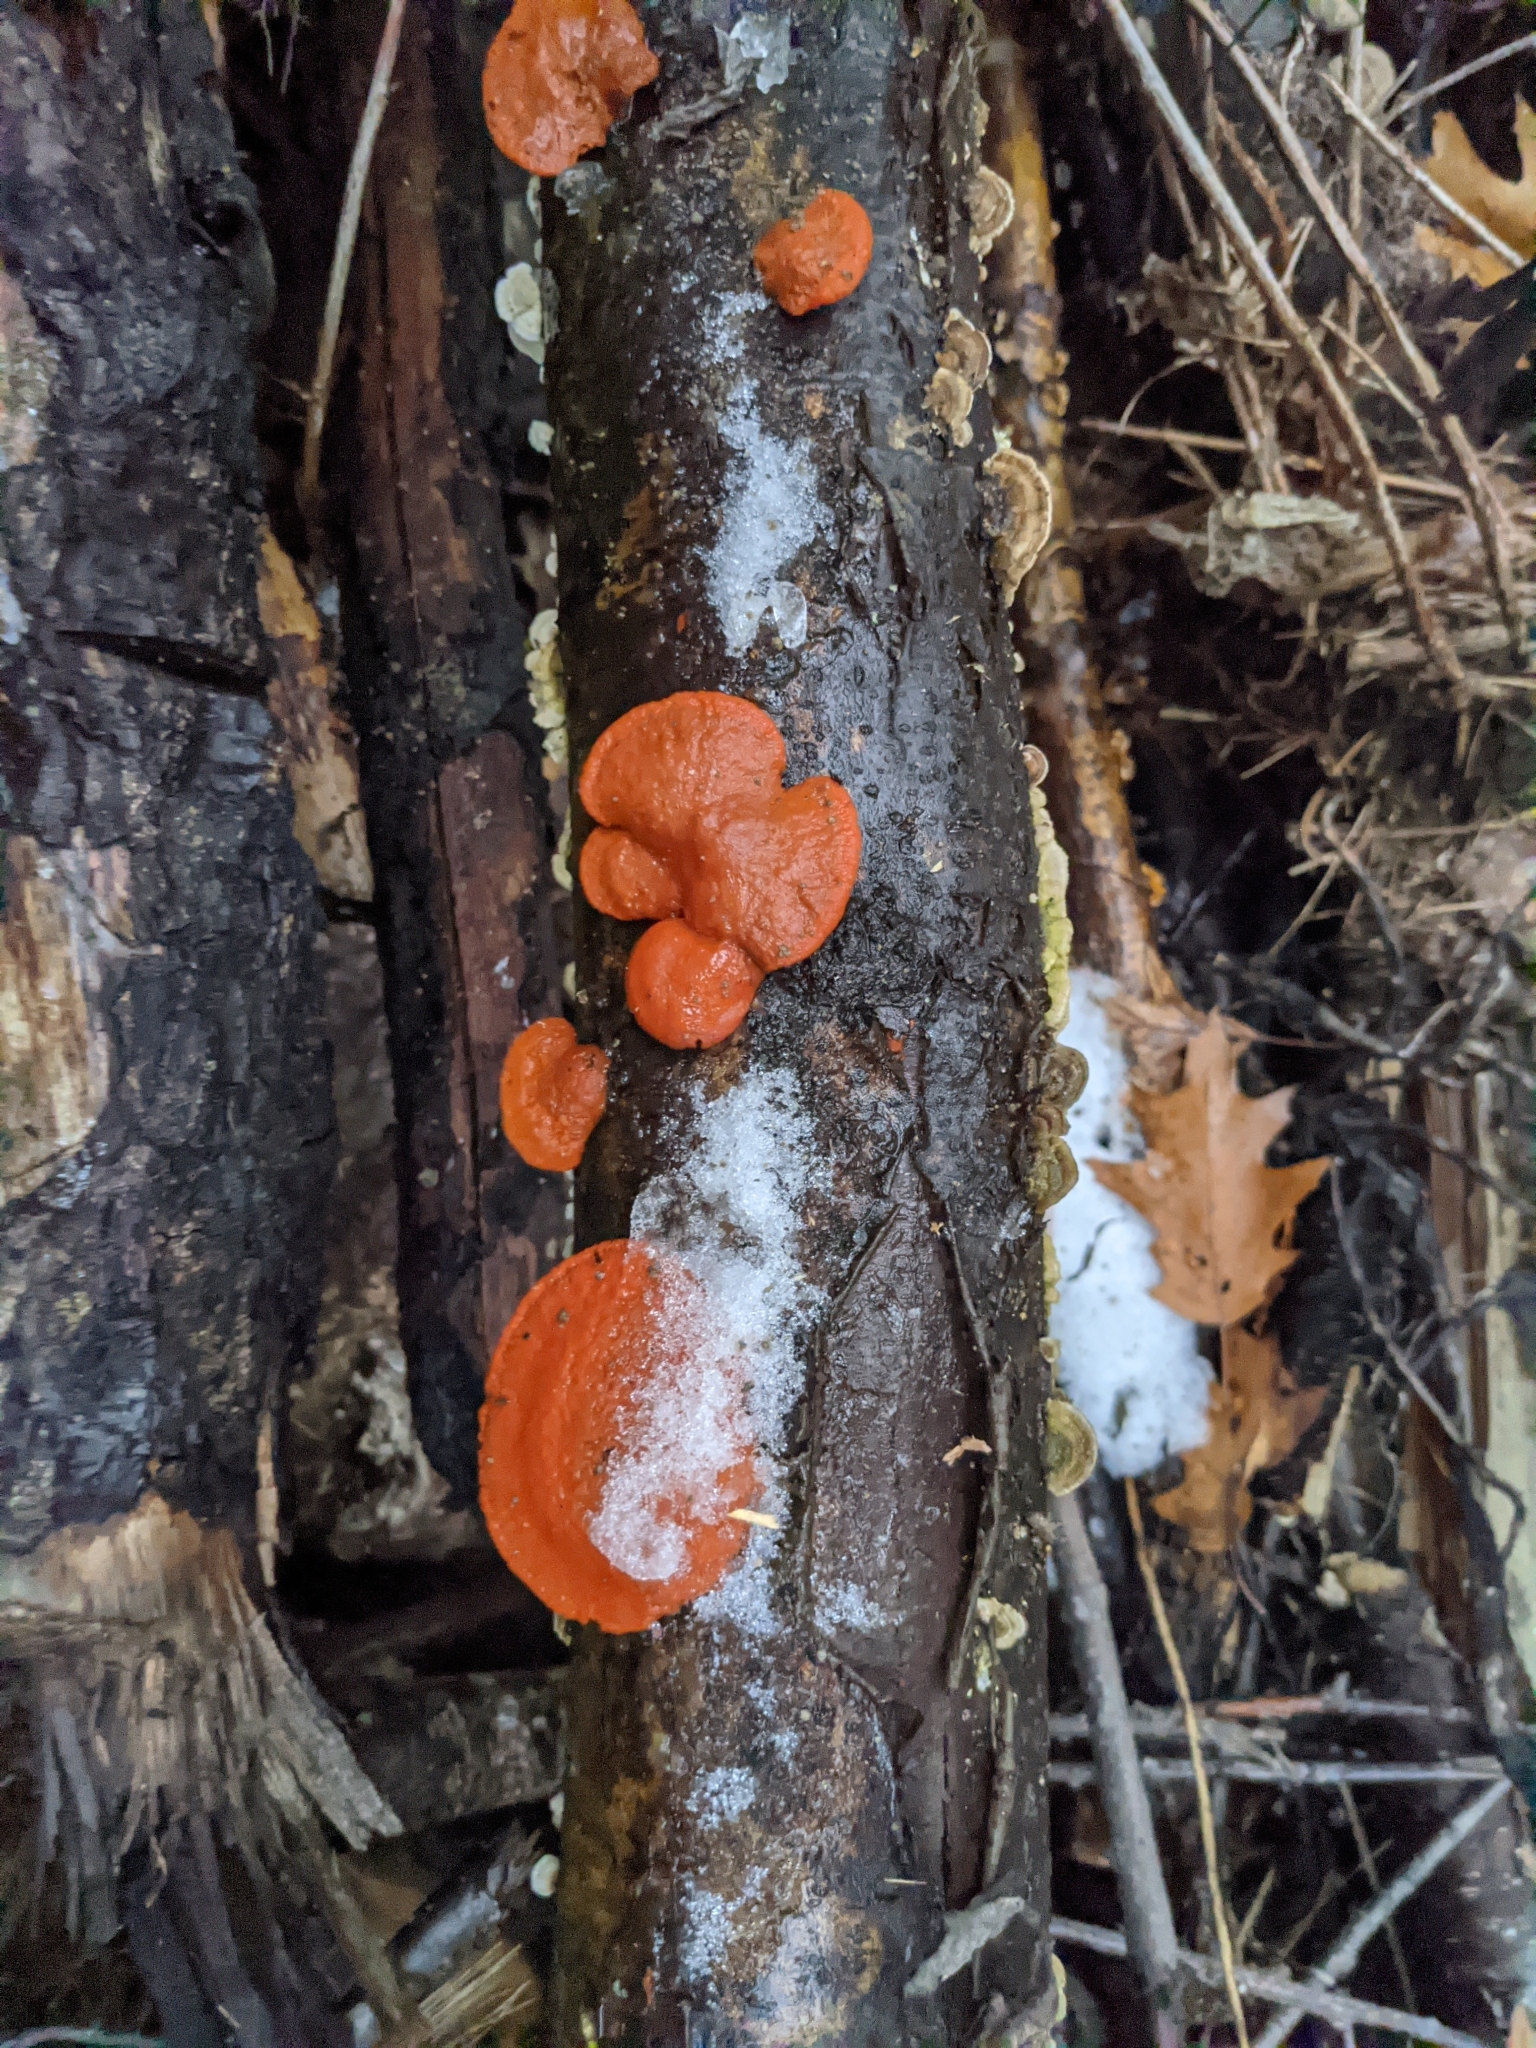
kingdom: Fungi
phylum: Basidiomycota
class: Agaricomycetes
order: Polyporales
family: Polyporaceae
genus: Trametes
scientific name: Trametes cinnabarina
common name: Northern cinnabar polypore
